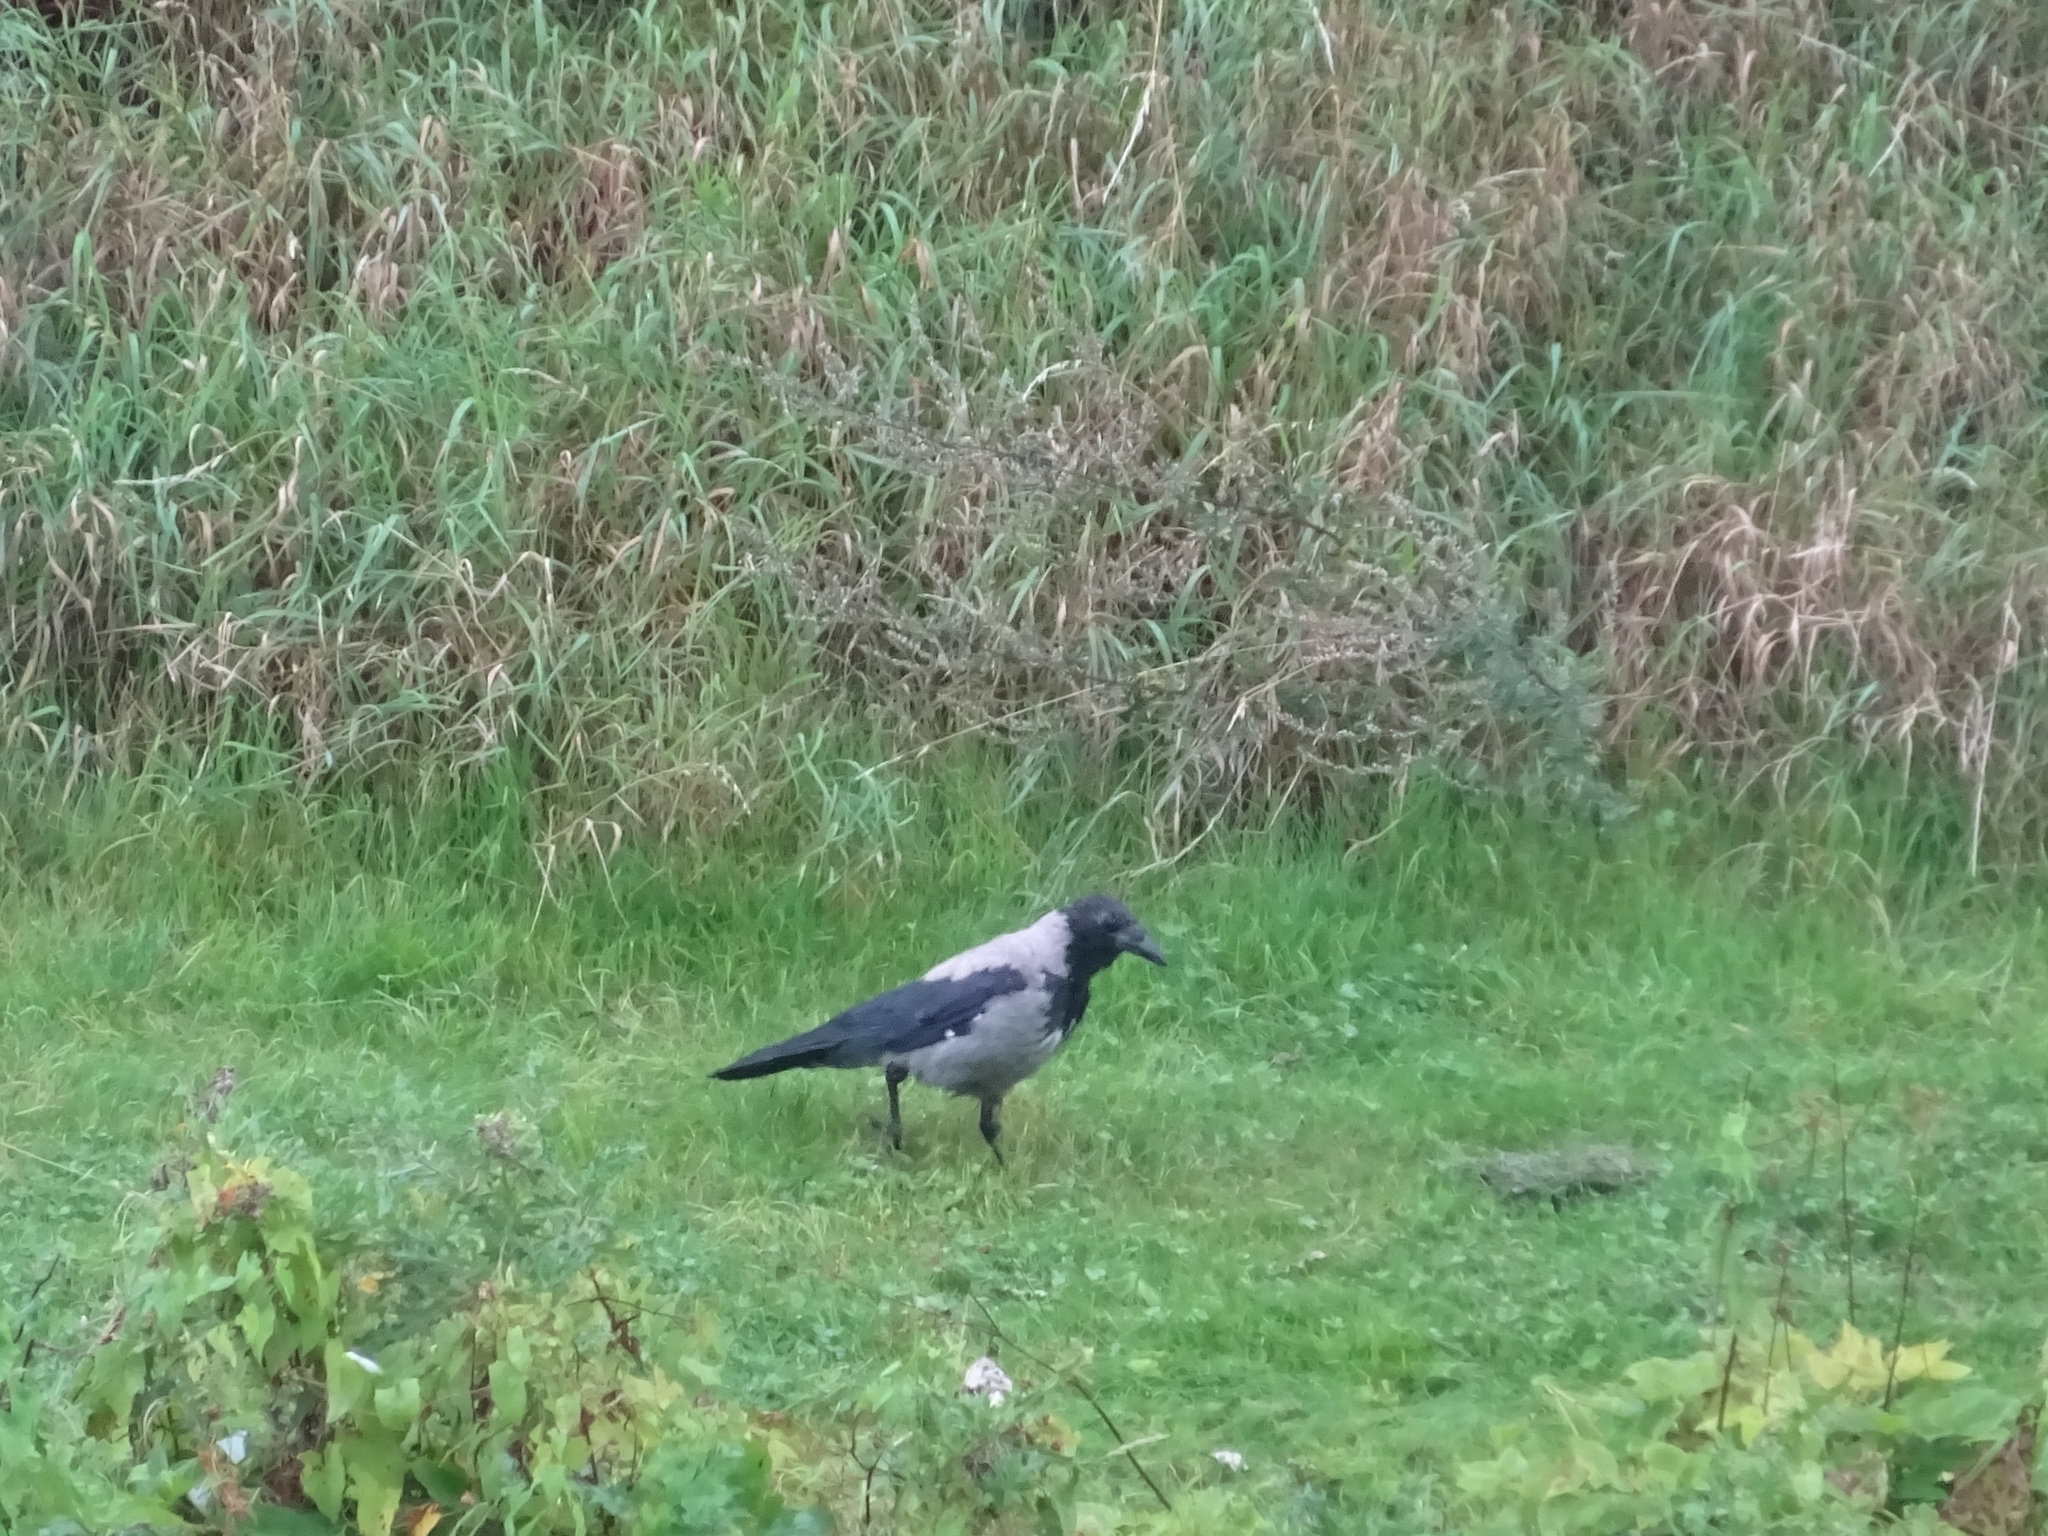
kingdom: Animalia
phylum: Chordata
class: Aves
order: Passeriformes
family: Corvidae
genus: Corvus
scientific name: Corvus cornix
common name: Hooded crow
